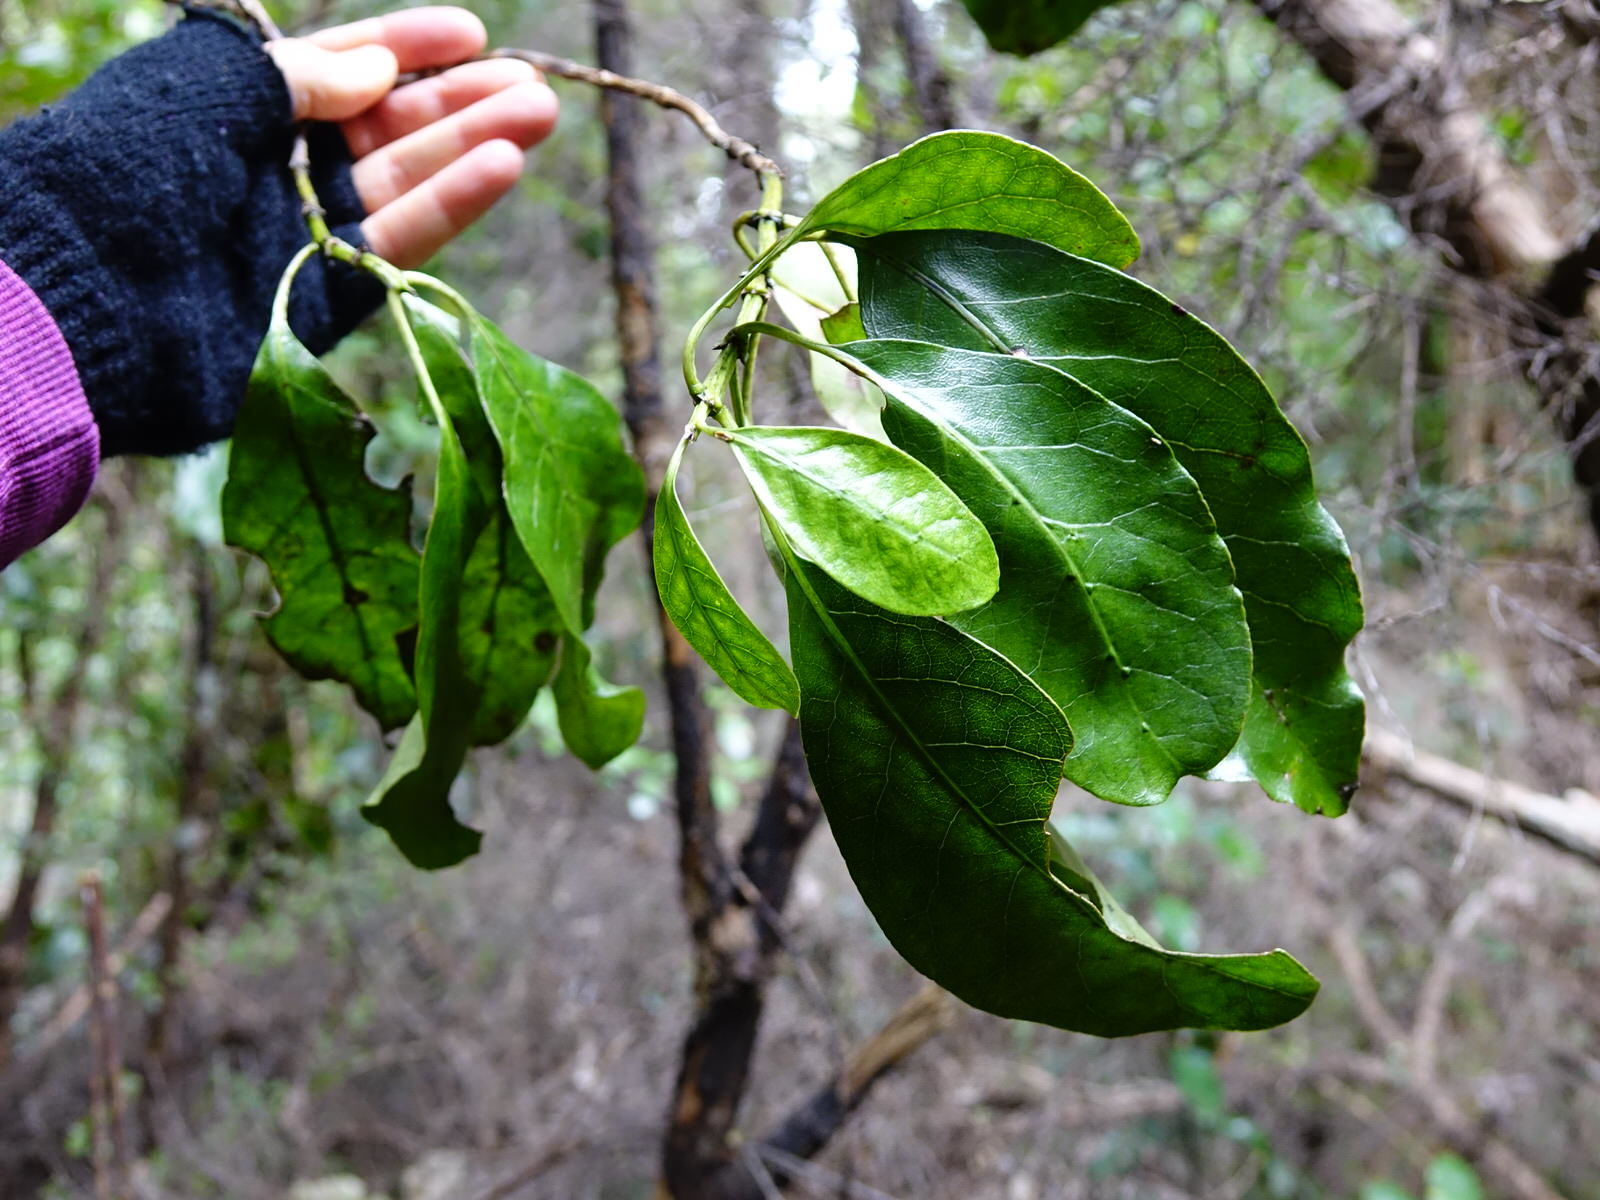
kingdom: Plantae
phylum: Tracheophyta
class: Magnoliopsida
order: Gentianales
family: Rubiaceae
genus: Coprosma
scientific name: Coprosma autumnalis
